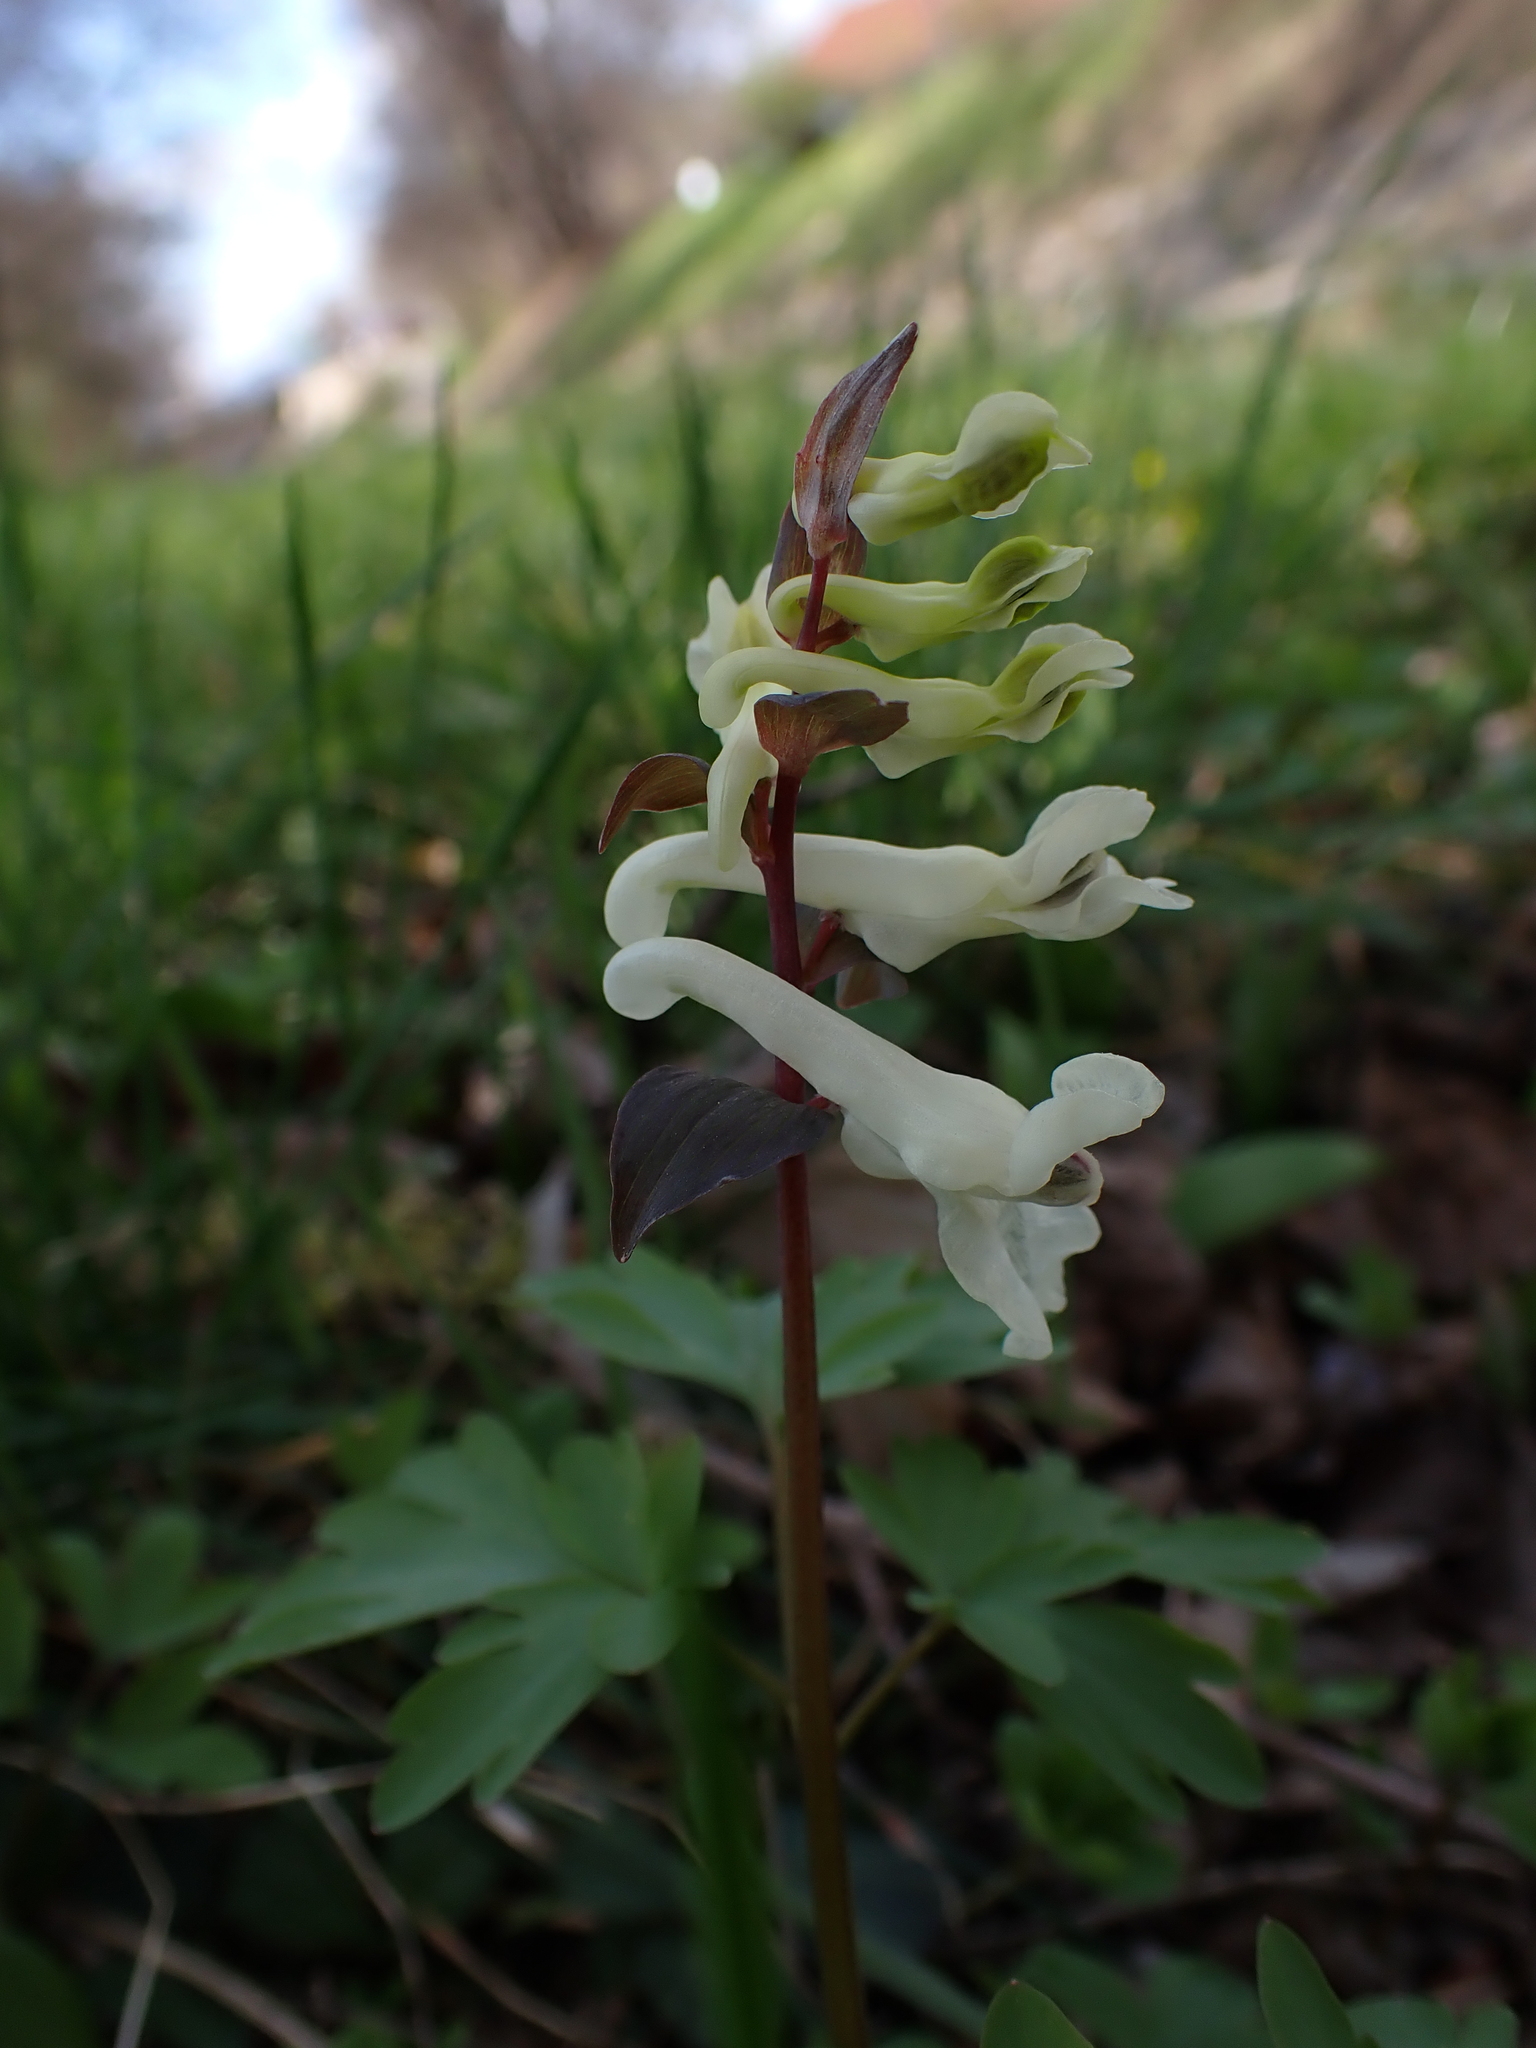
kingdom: Plantae
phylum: Tracheophyta
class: Magnoliopsida
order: Ranunculales
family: Papaveraceae
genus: Corydalis
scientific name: Corydalis cava
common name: Hollowroot
